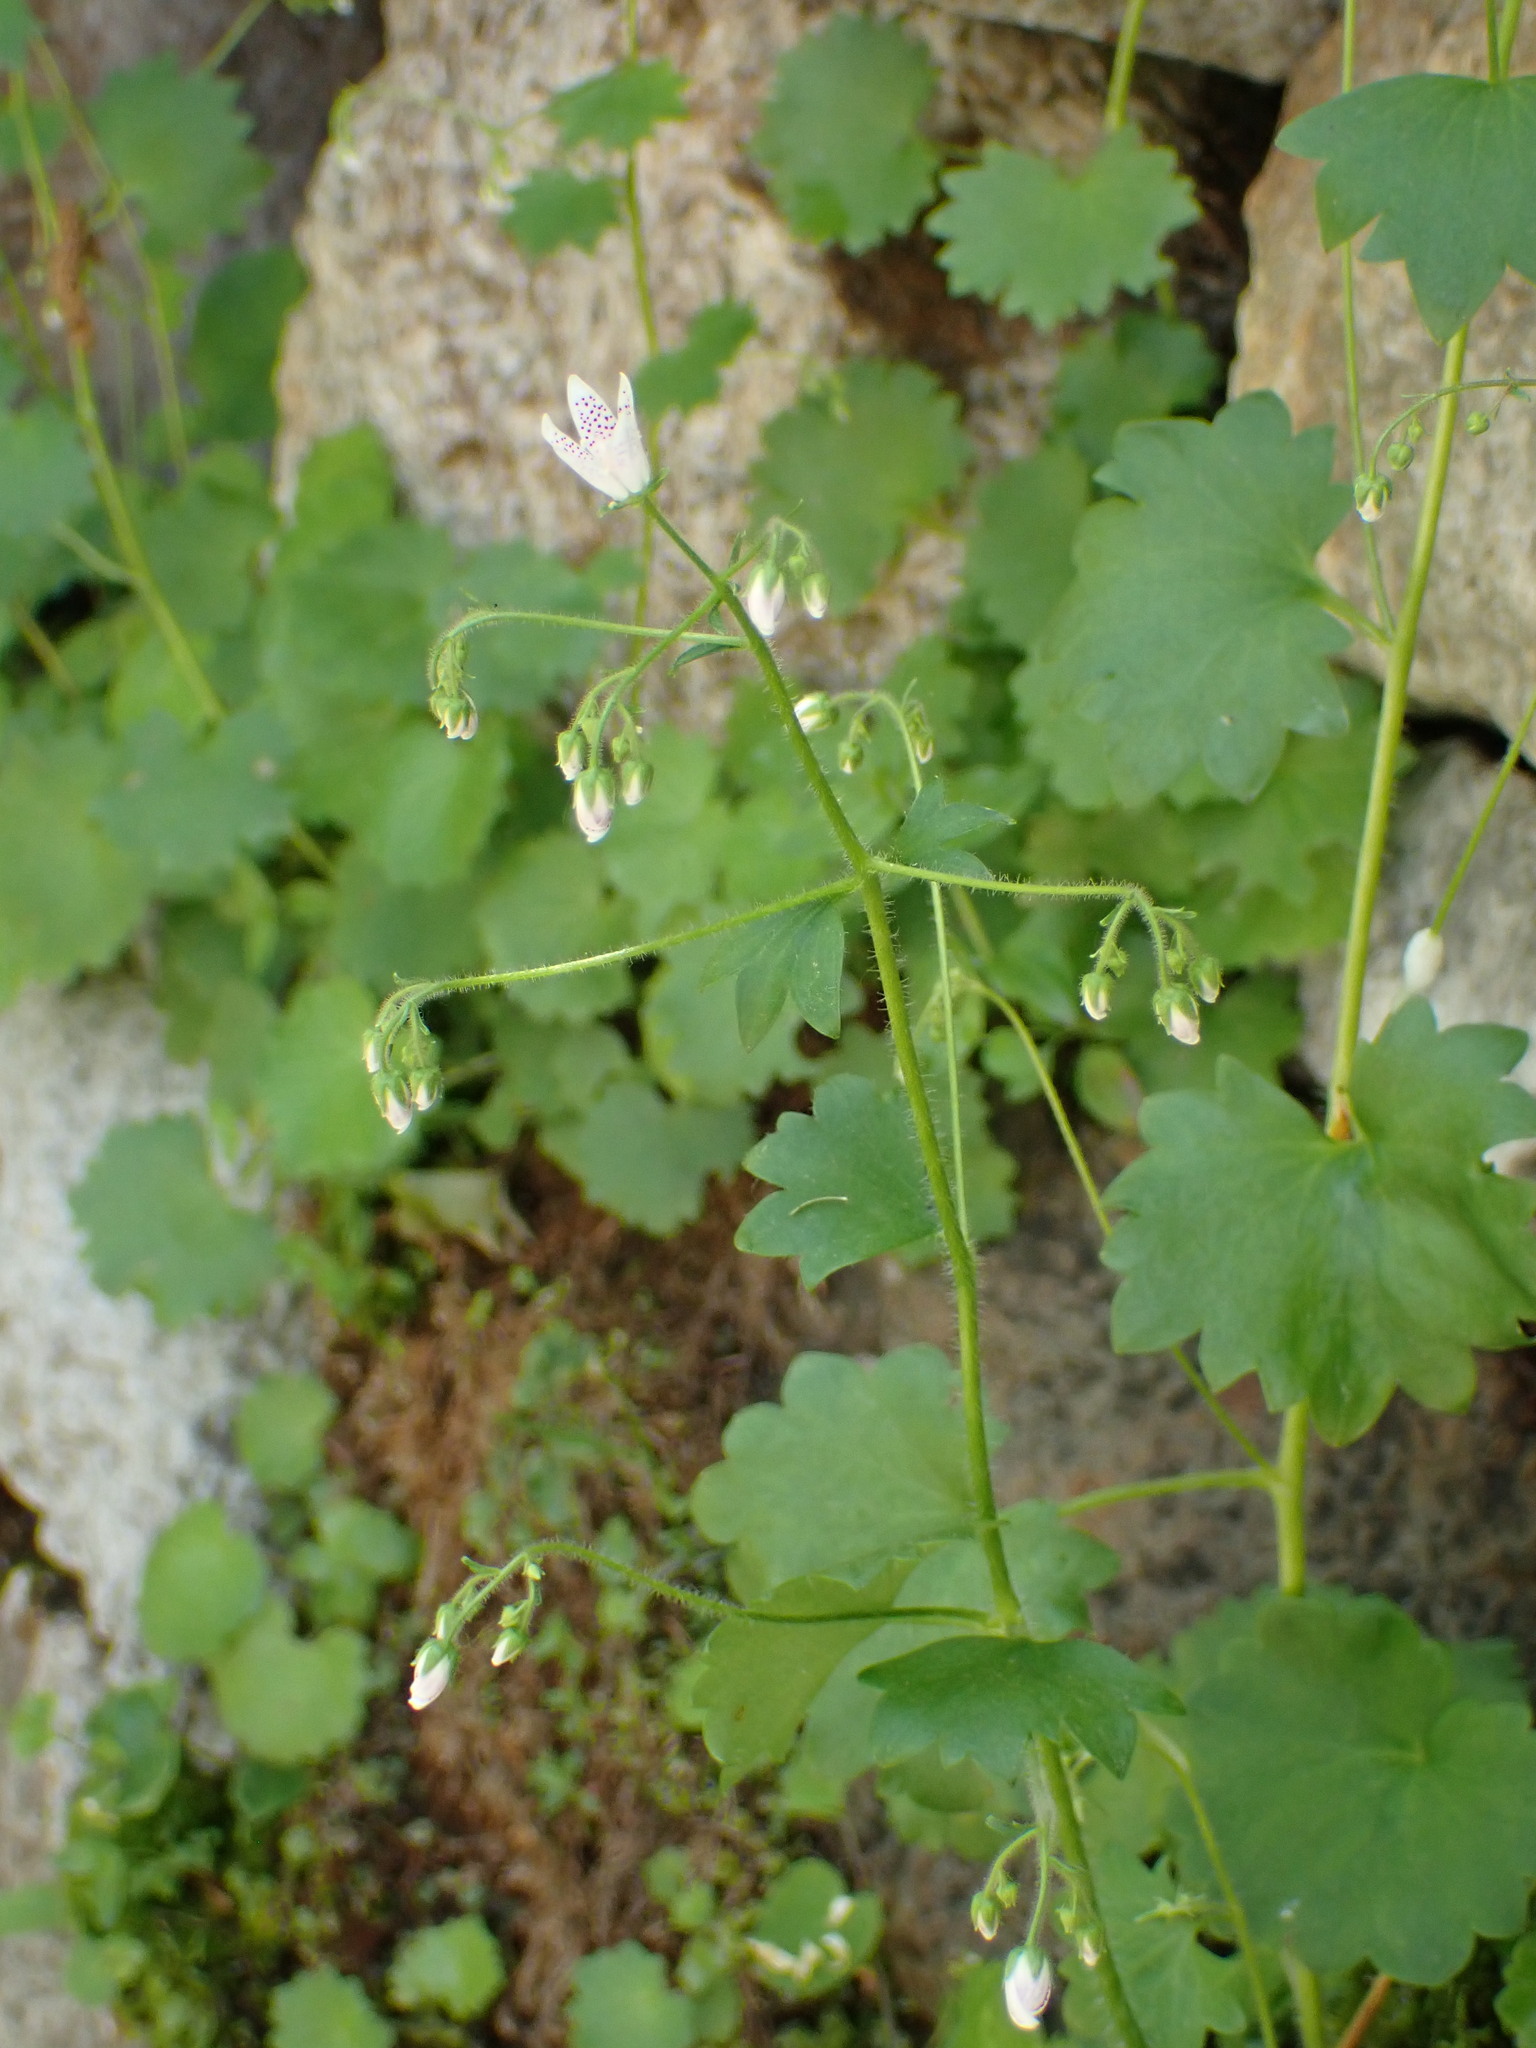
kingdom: Plantae
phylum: Tracheophyta
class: Magnoliopsida
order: Saxifragales
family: Saxifragaceae
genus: Saxifraga
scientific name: Saxifraga rotundifolia
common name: Round-leaved saxifrage
